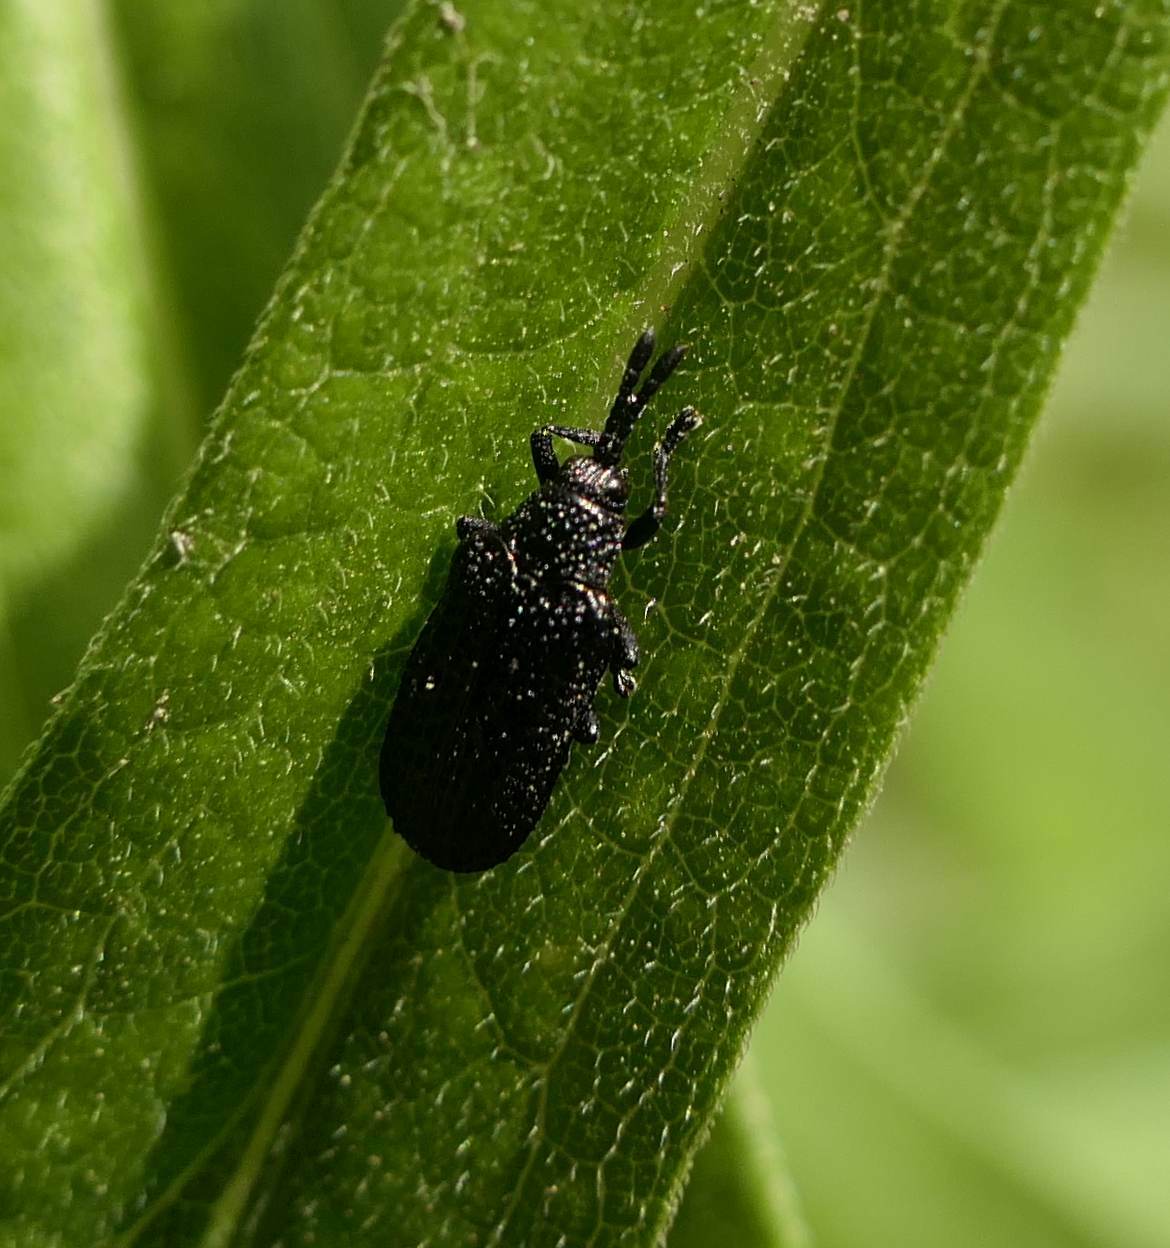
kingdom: Animalia
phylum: Arthropoda
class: Insecta
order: Coleoptera
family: Chrysomelidae
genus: Microrhopala
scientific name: Microrhopala excavata
